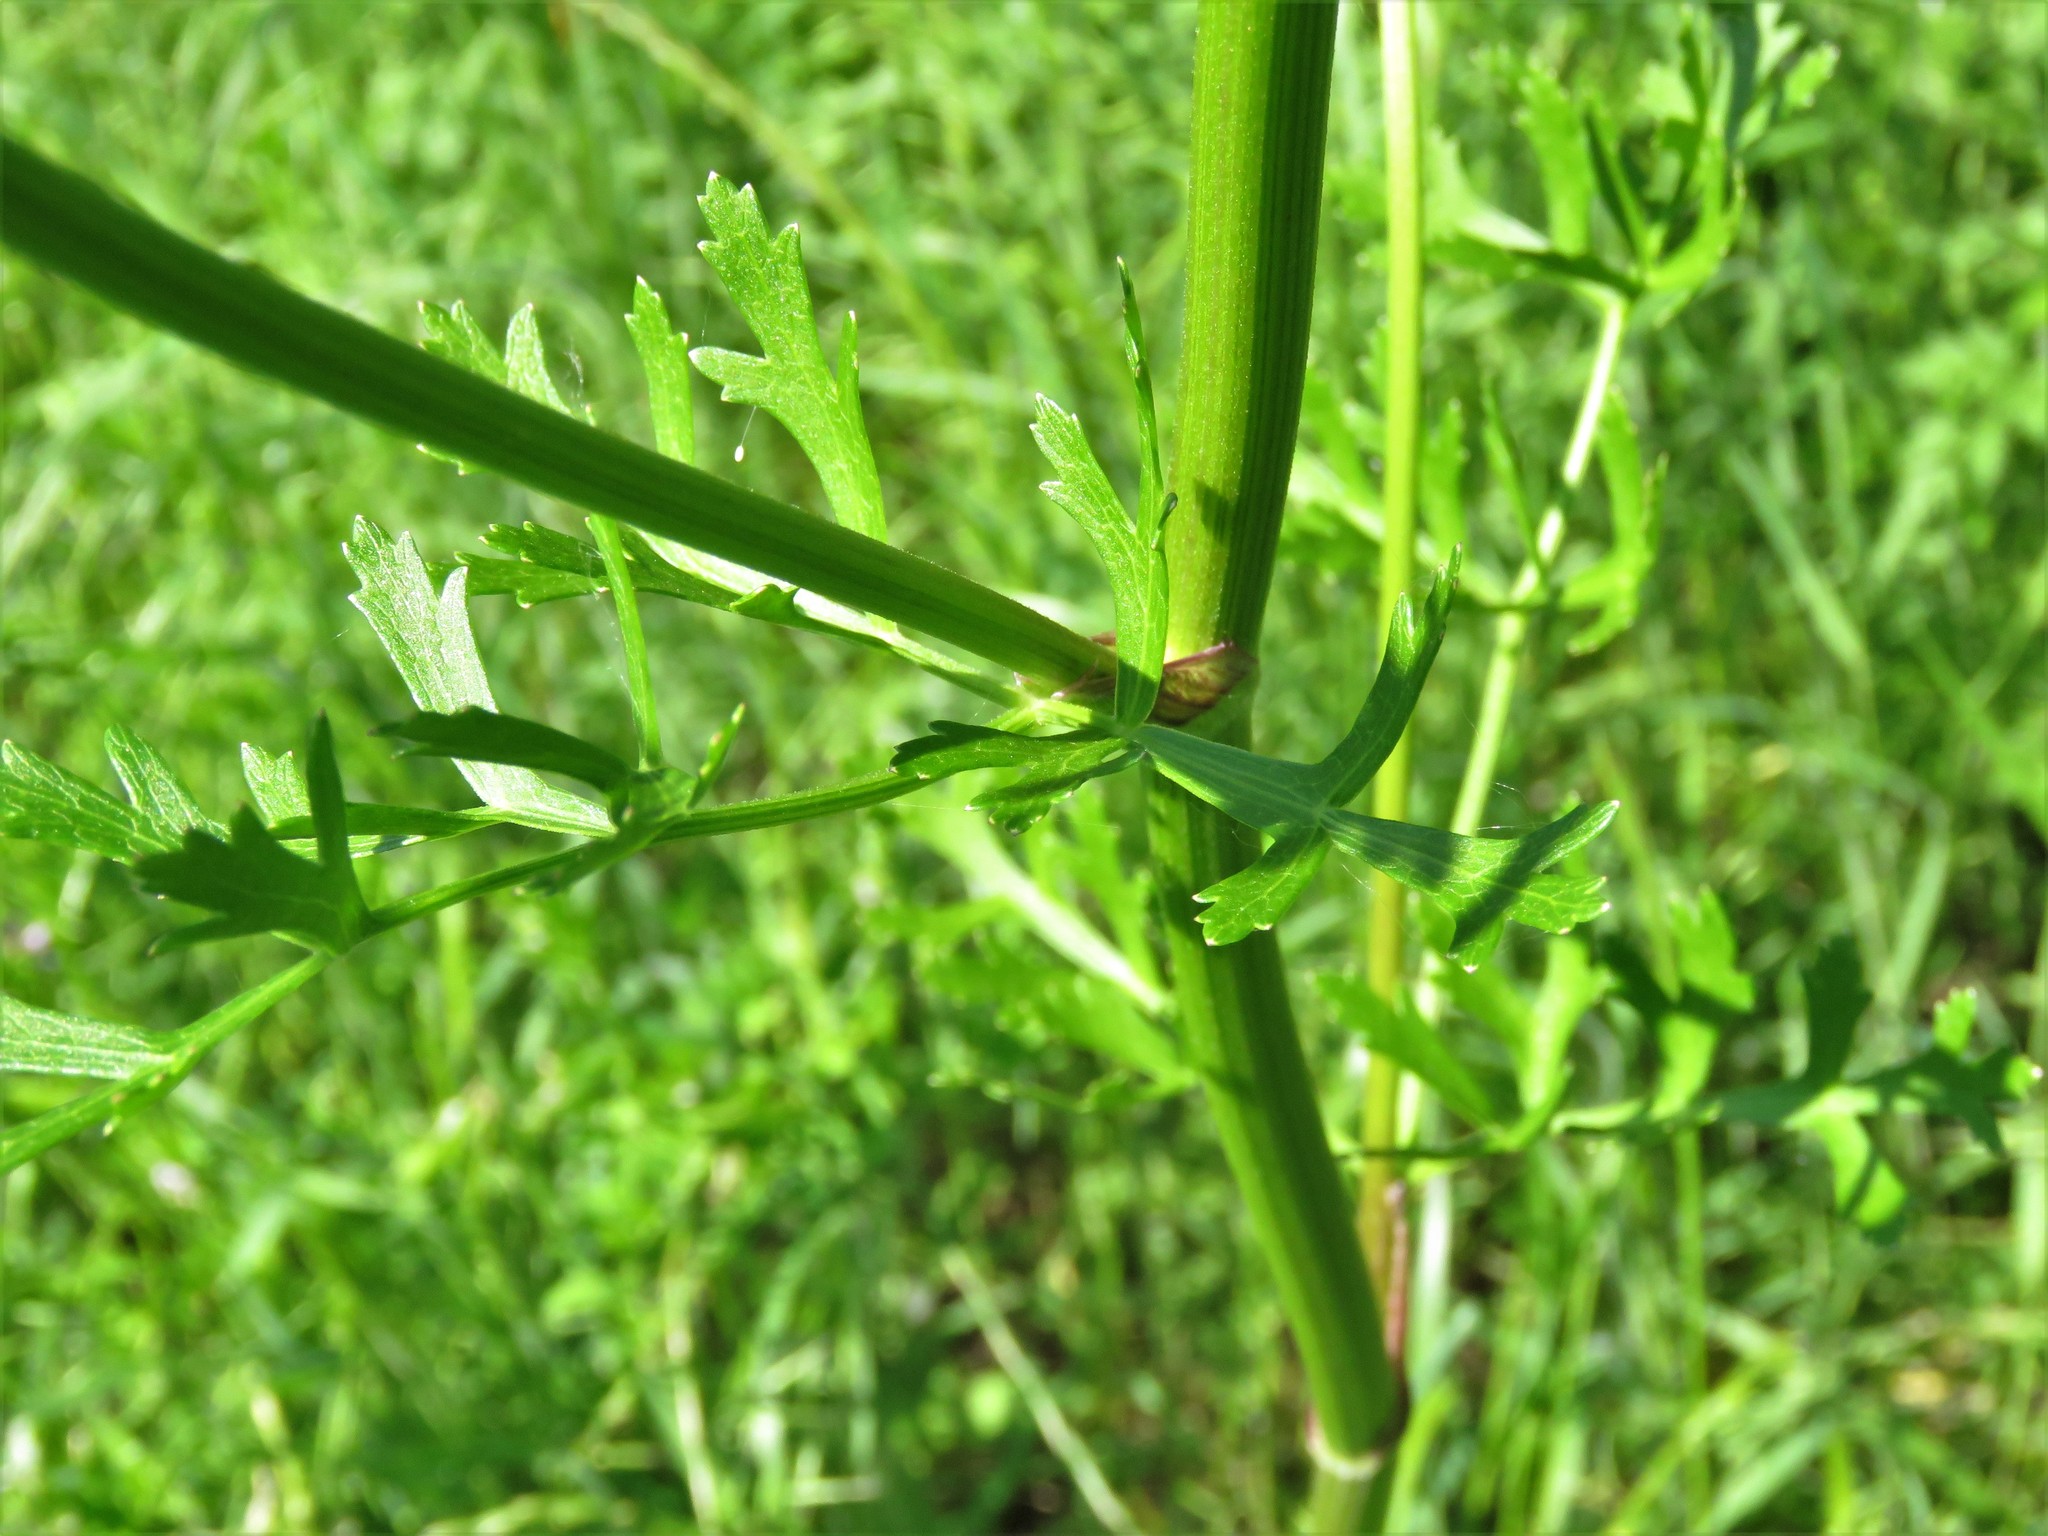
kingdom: Plantae
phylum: Tracheophyta
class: Magnoliopsida
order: Apiales
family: Apiaceae
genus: Polytaenia
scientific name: Polytaenia texana
